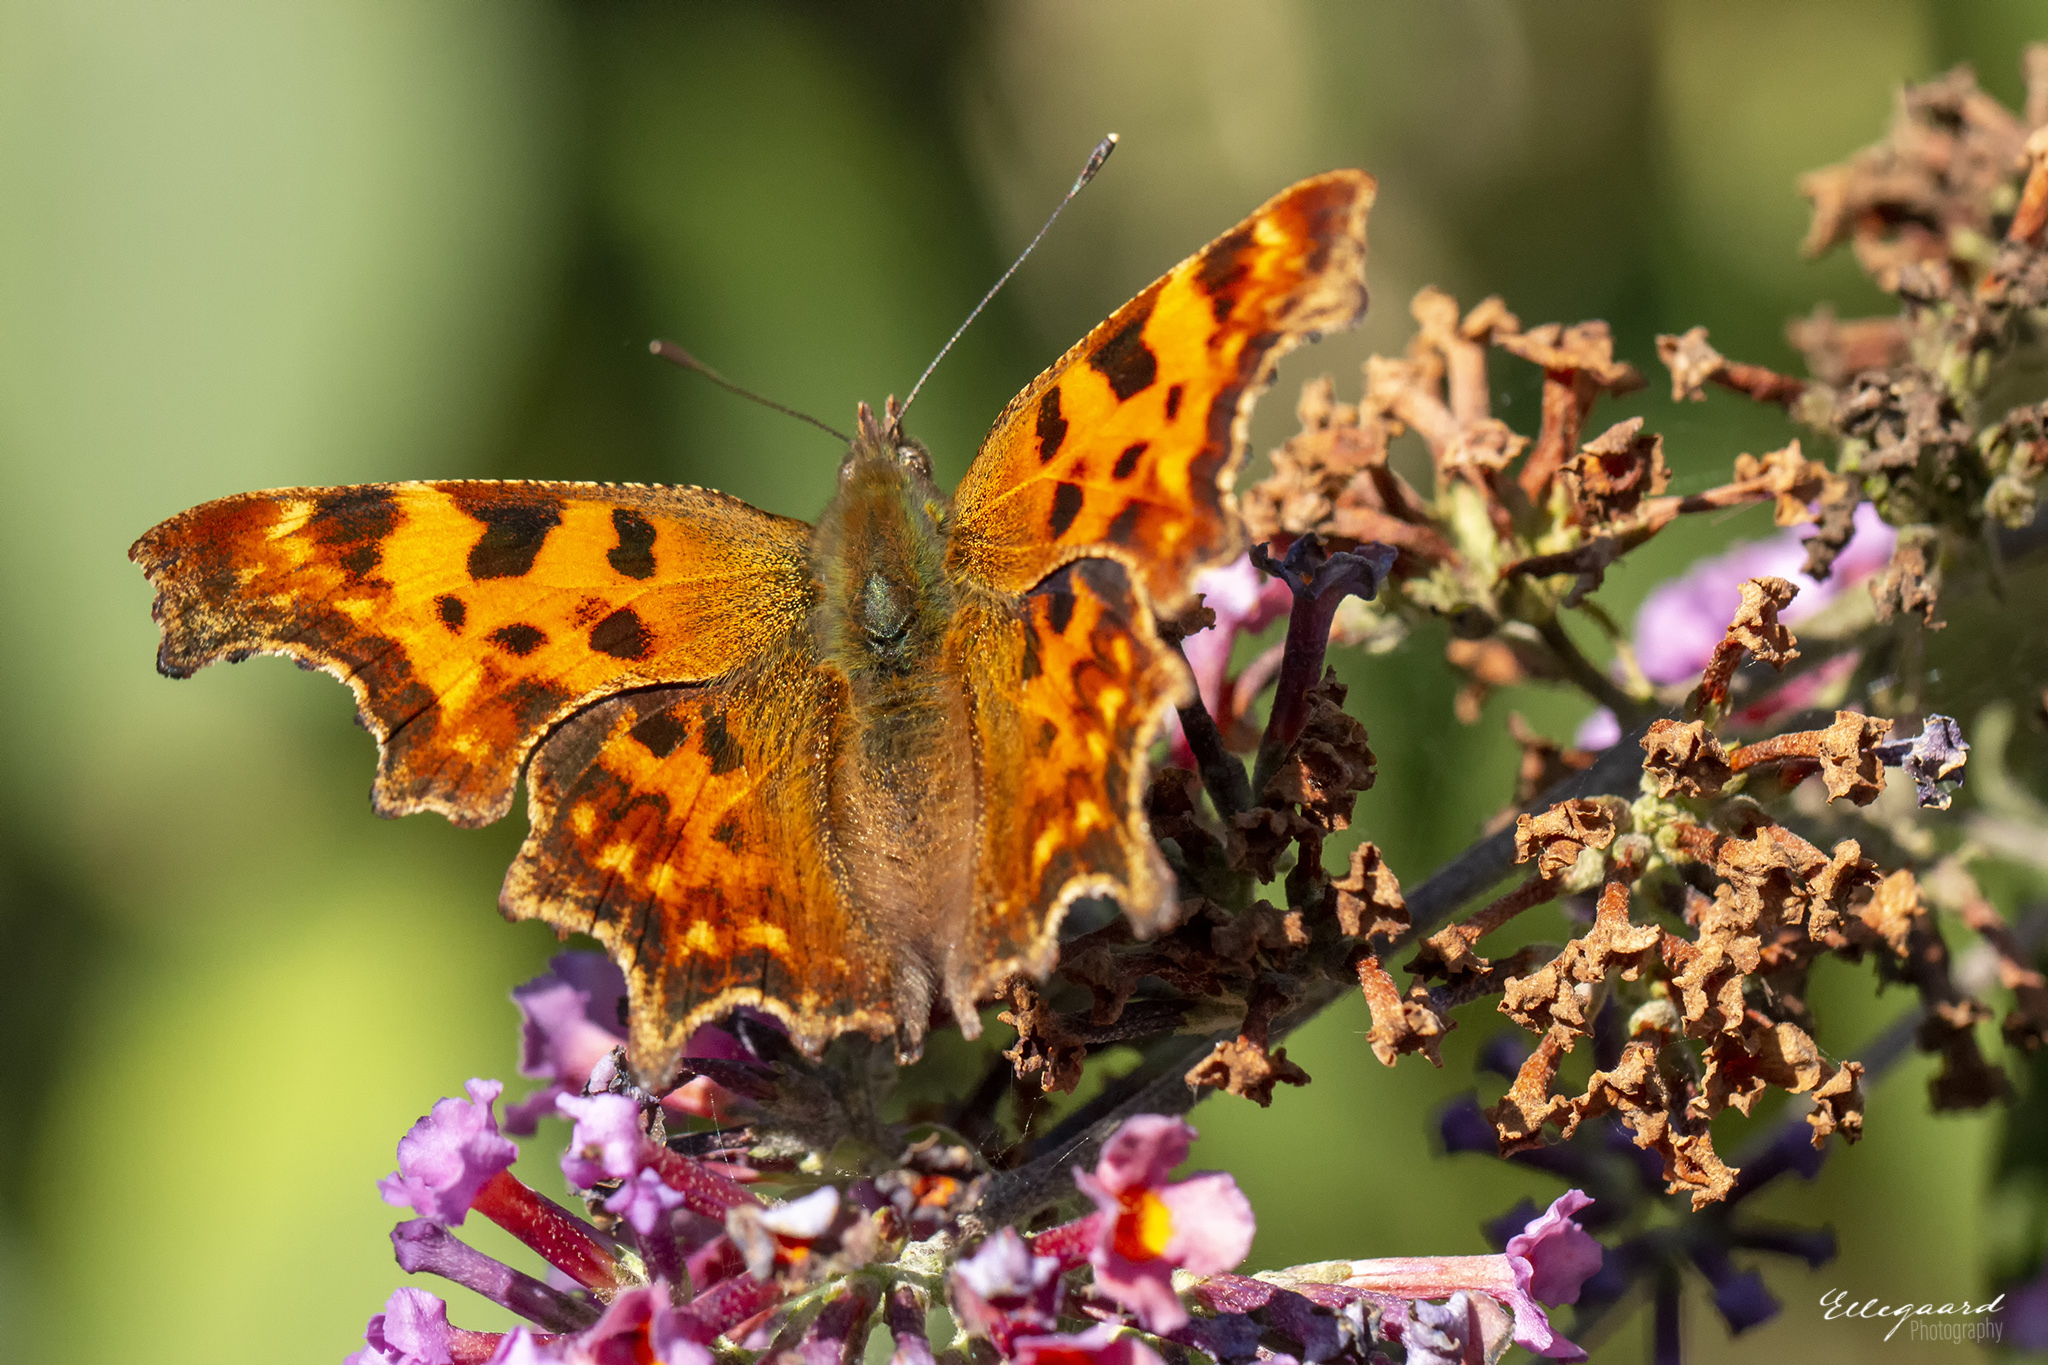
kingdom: Animalia
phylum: Arthropoda
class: Insecta
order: Lepidoptera
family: Nymphalidae
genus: Polygonia
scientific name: Polygonia c-album
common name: Comma
